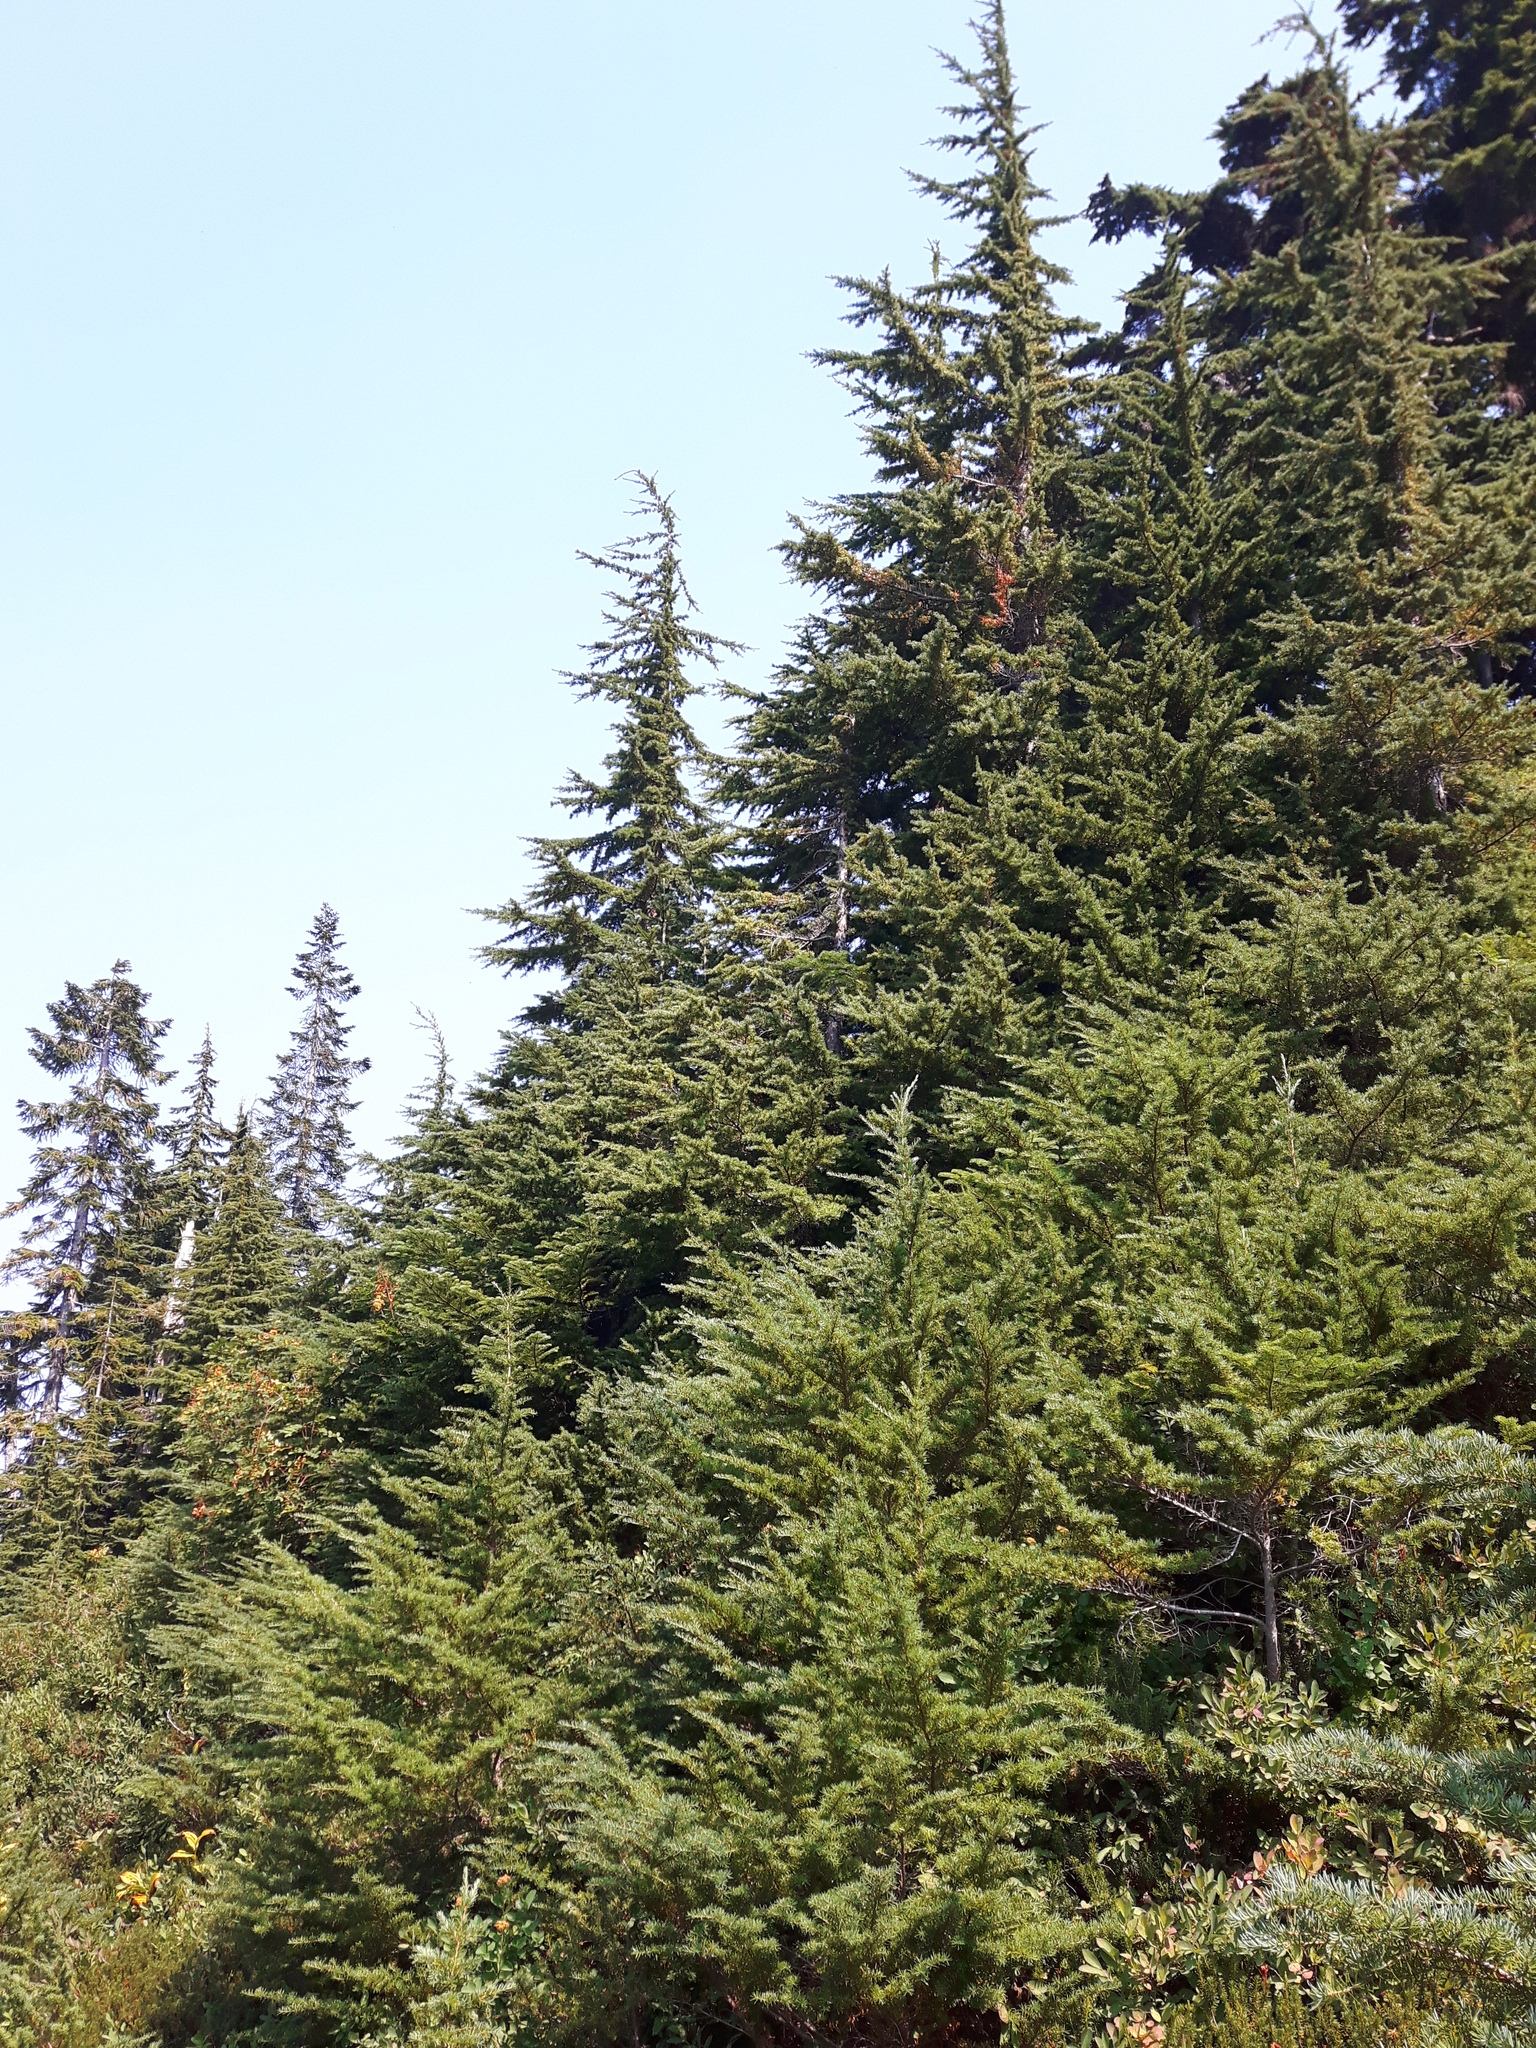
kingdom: Plantae
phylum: Tracheophyta
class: Pinopsida
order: Pinales
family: Pinaceae
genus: Tsuga
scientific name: Tsuga mertensiana
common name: Mountain hemlock
